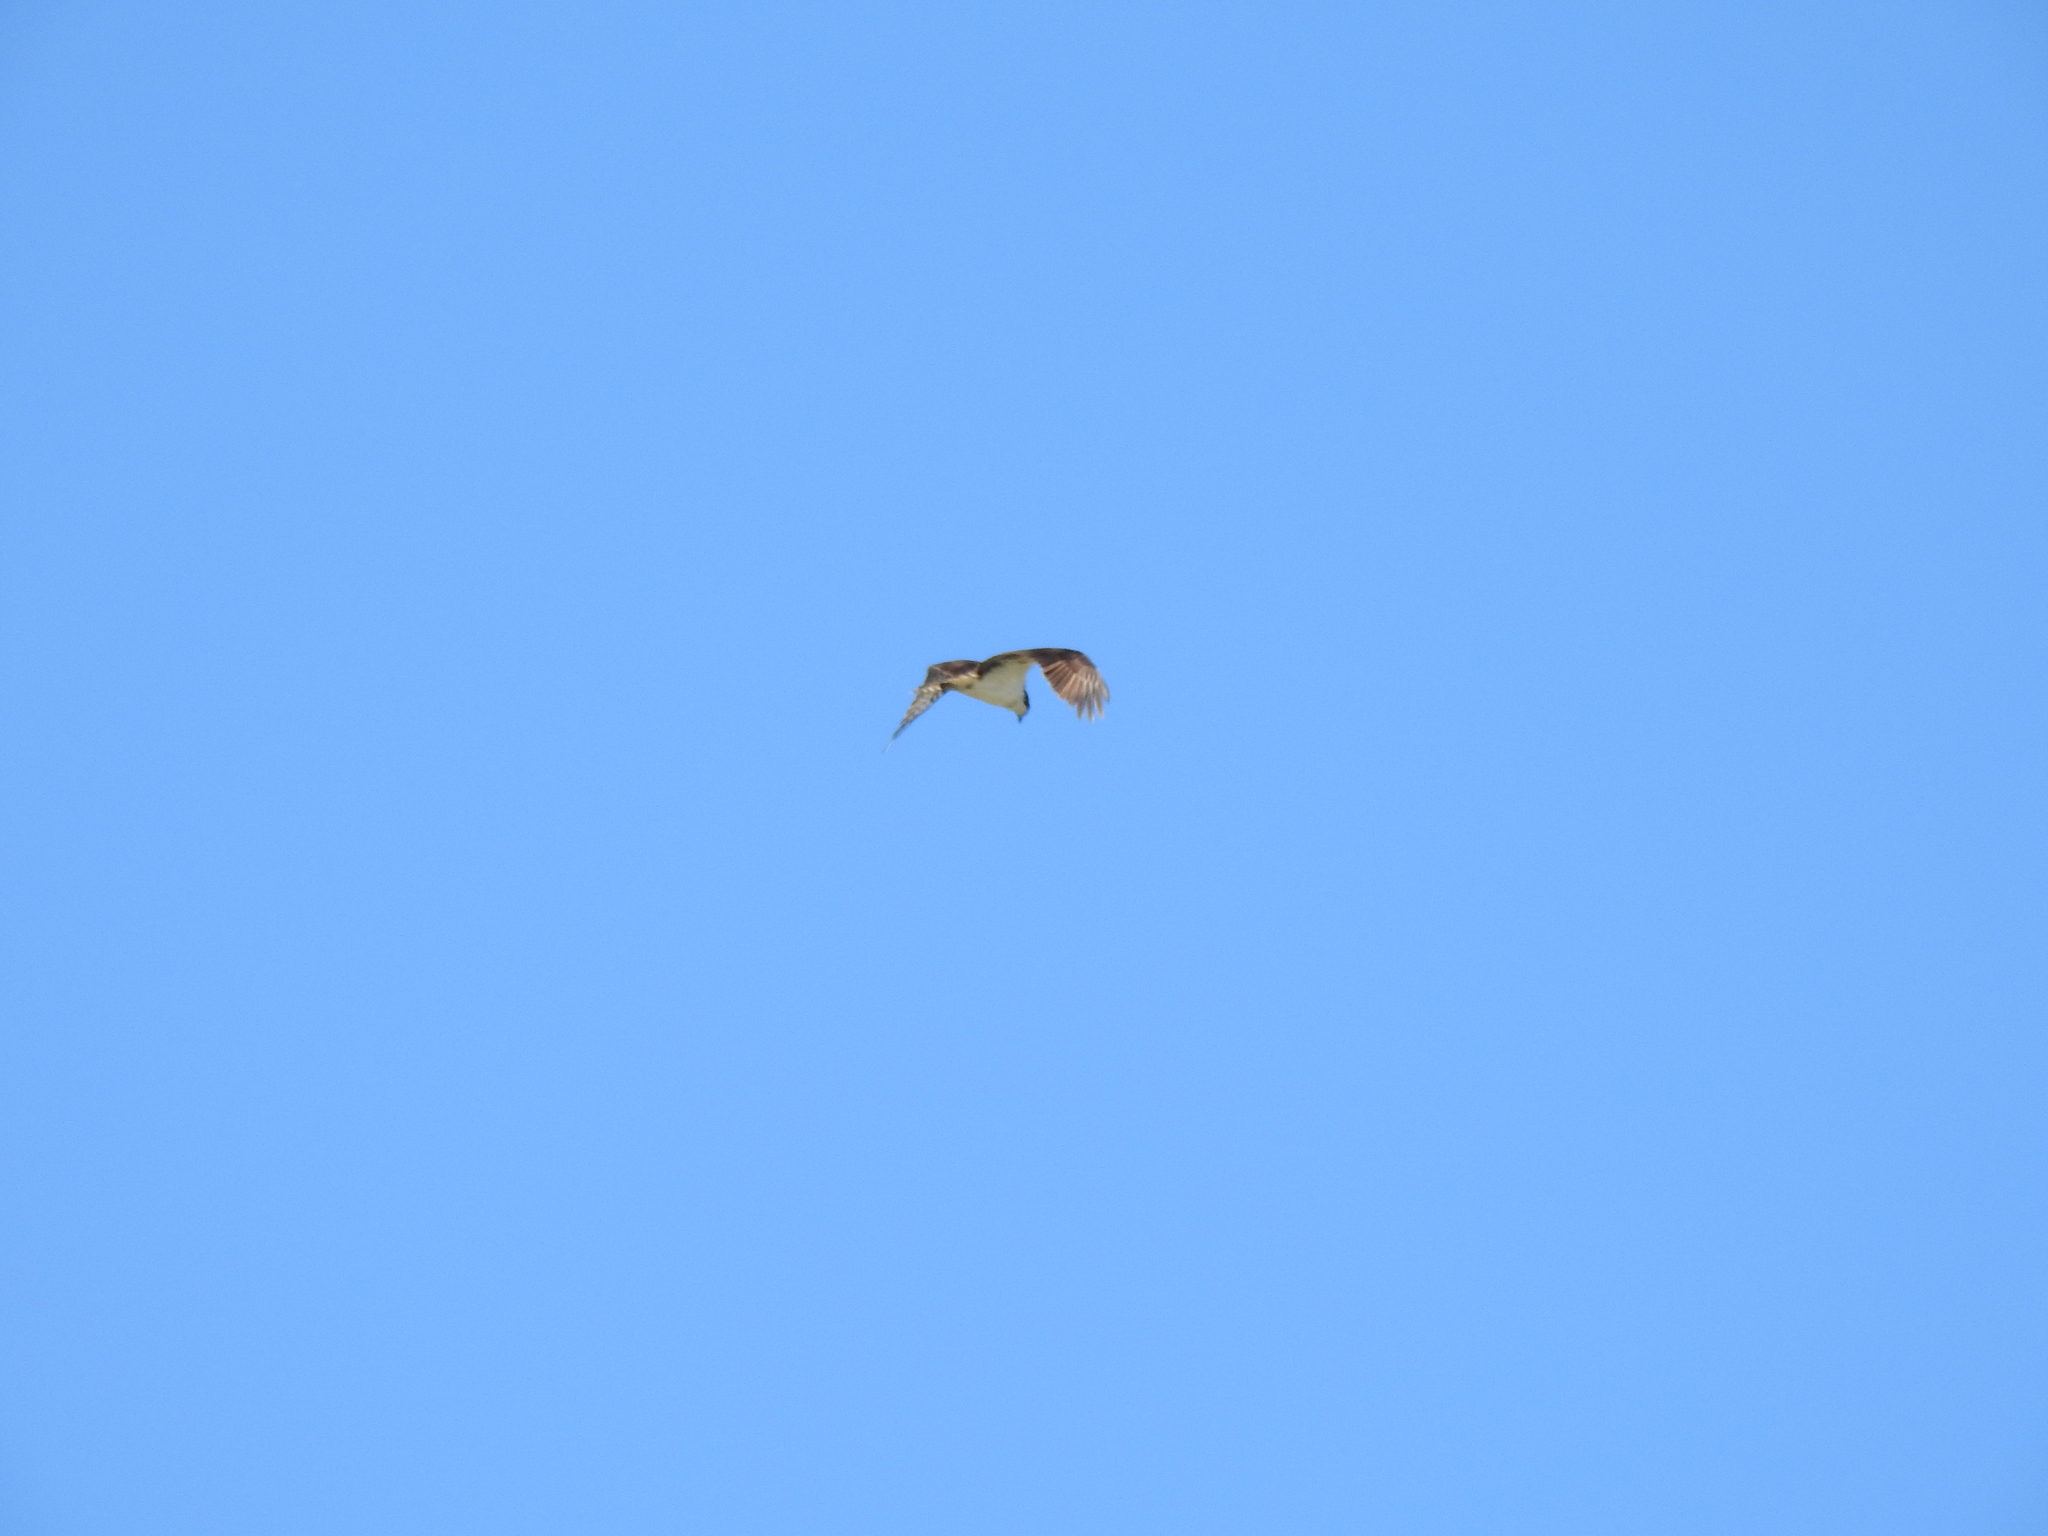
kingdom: Animalia
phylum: Chordata
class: Aves
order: Accipitriformes
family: Pandionidae
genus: Pandion
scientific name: Pandion haliaetus
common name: Osprey
